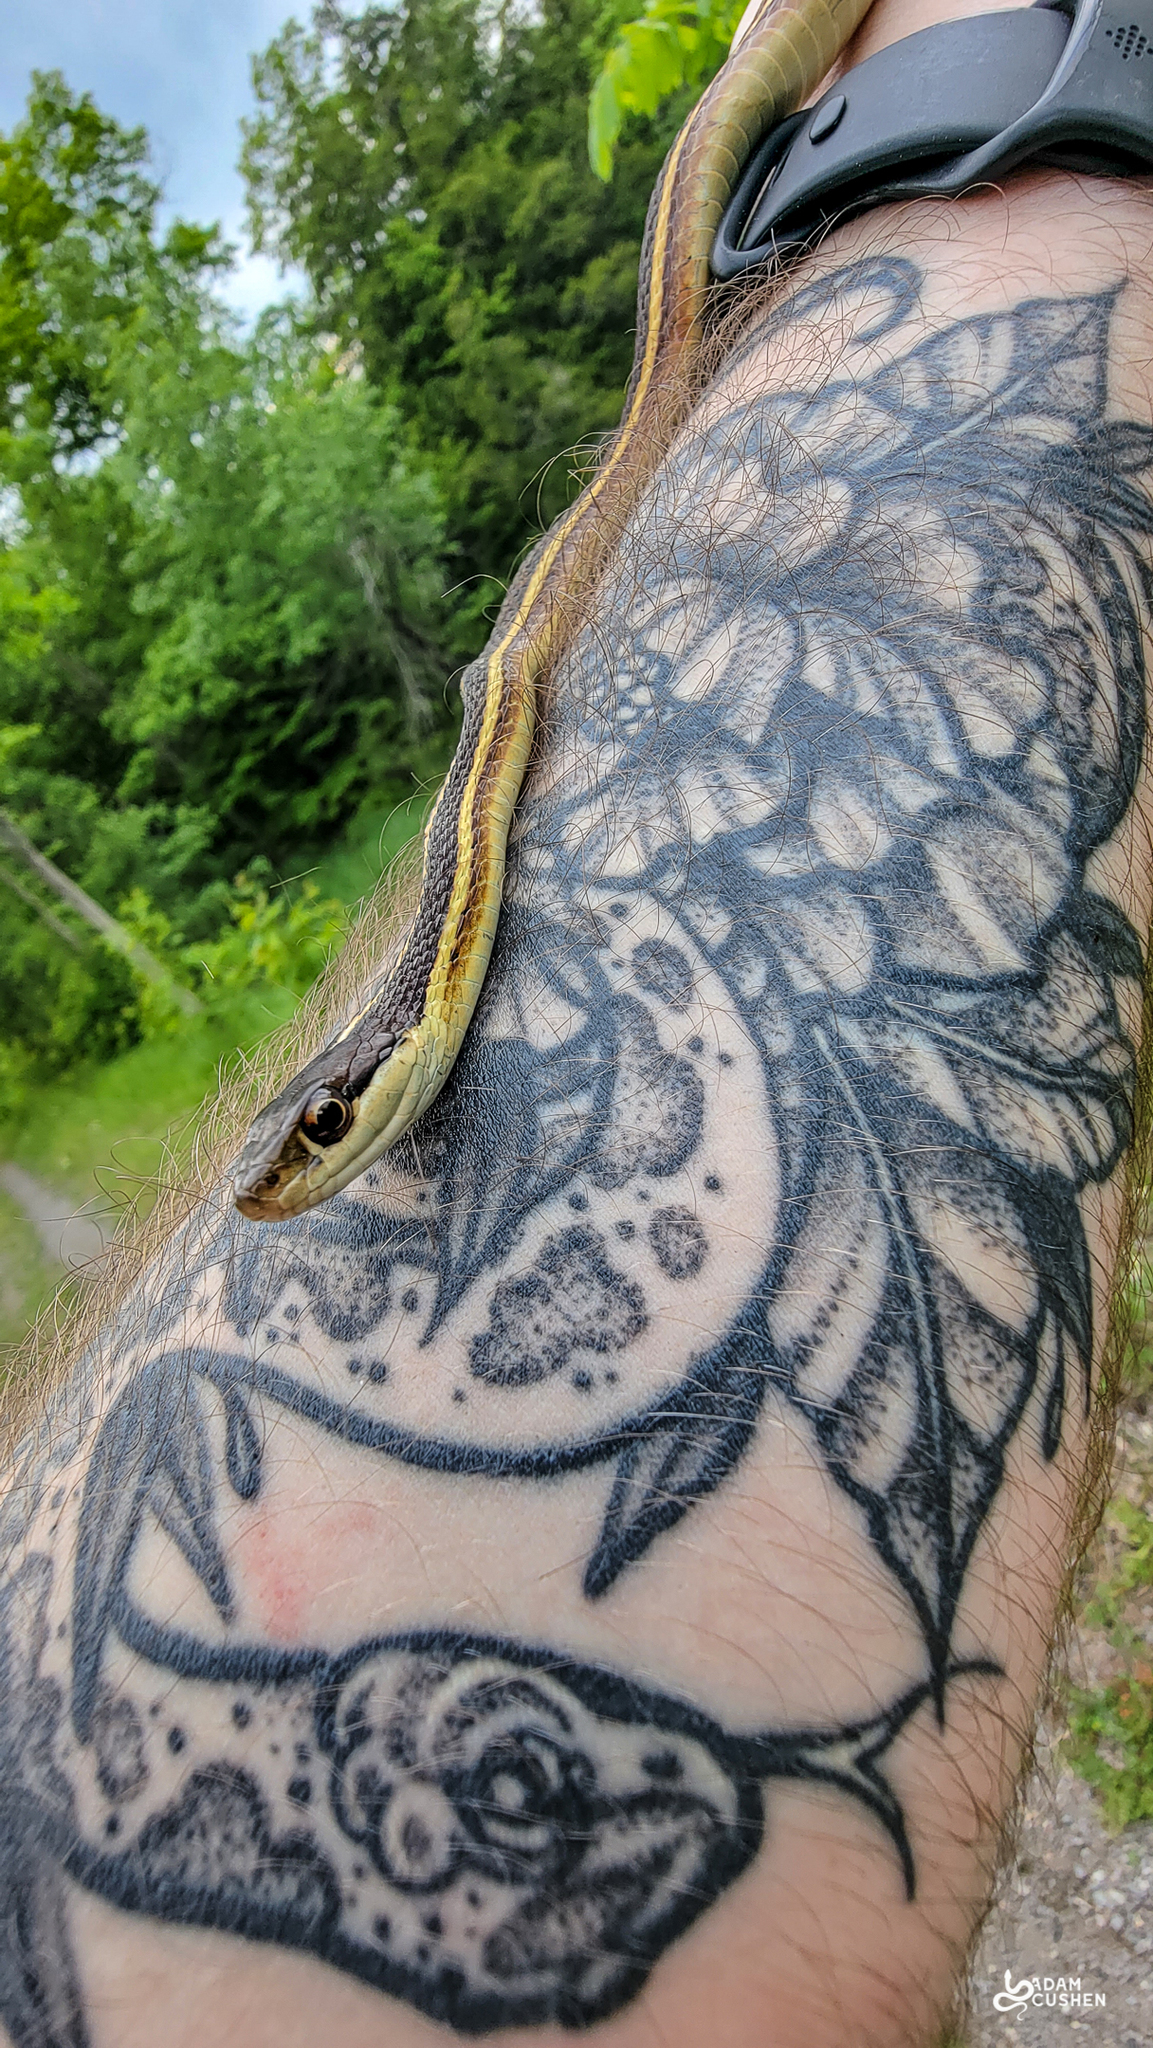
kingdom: Animalia
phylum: Chordata
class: Squamata
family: Colubridae
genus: Thamnophis
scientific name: Thamnophis saurita
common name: Eastern ribbonsnake
